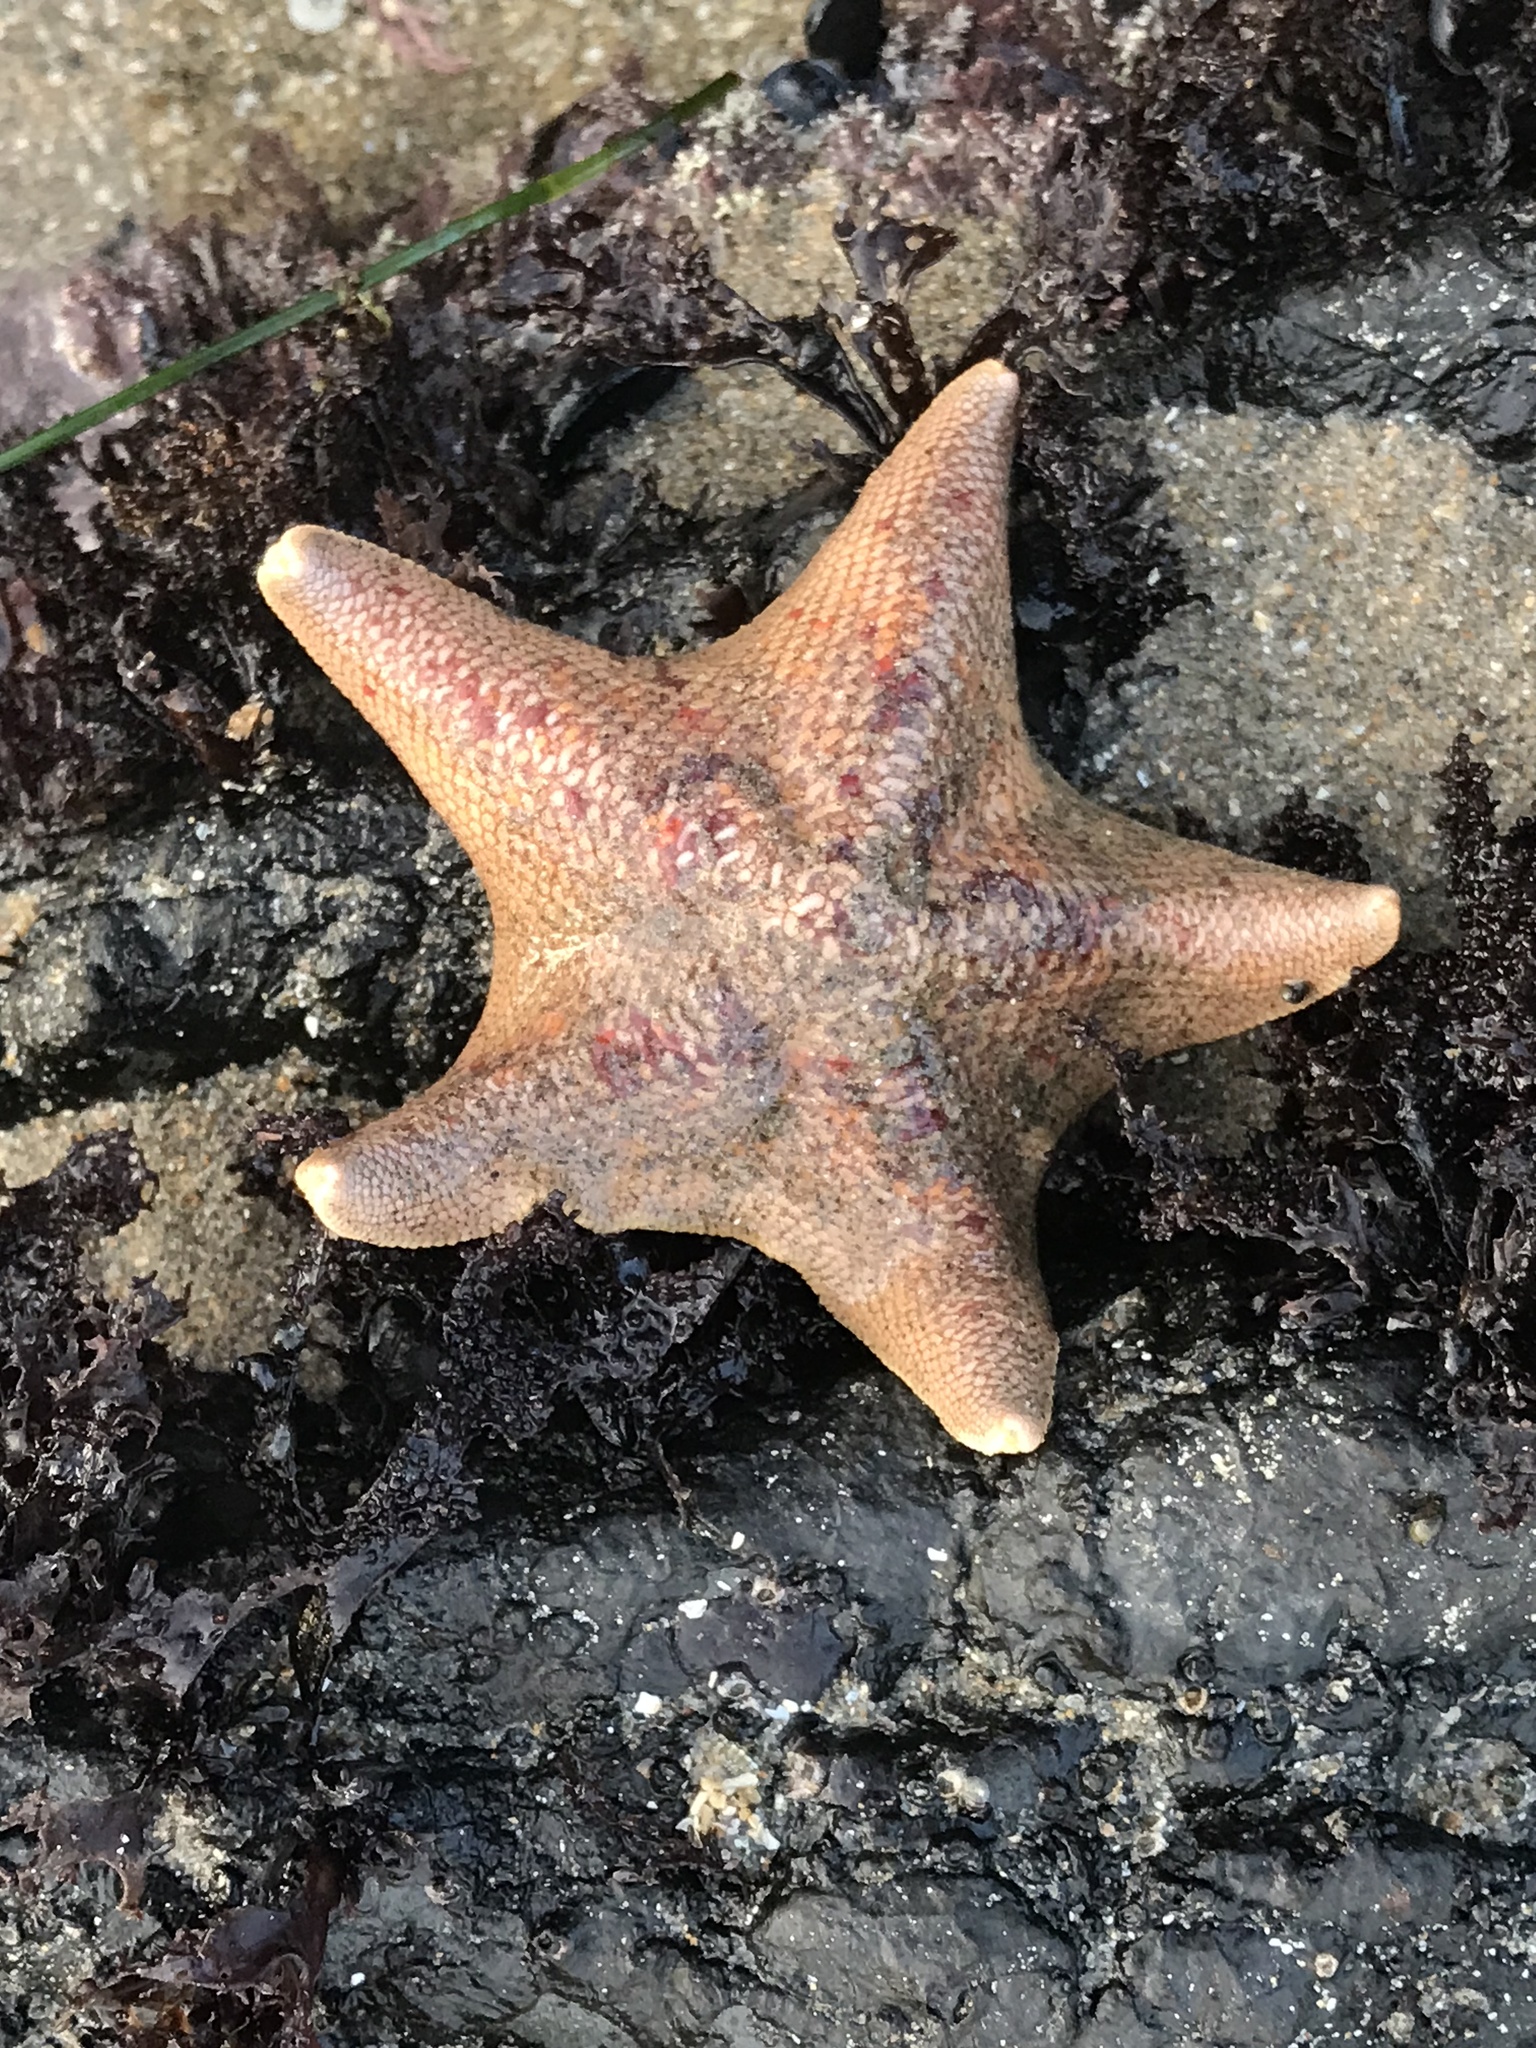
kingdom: Animalia
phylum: Echinodermata
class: Asteroidea
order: Valvatida
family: Asterinidae
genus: Patiria
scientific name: Patiria miniata
